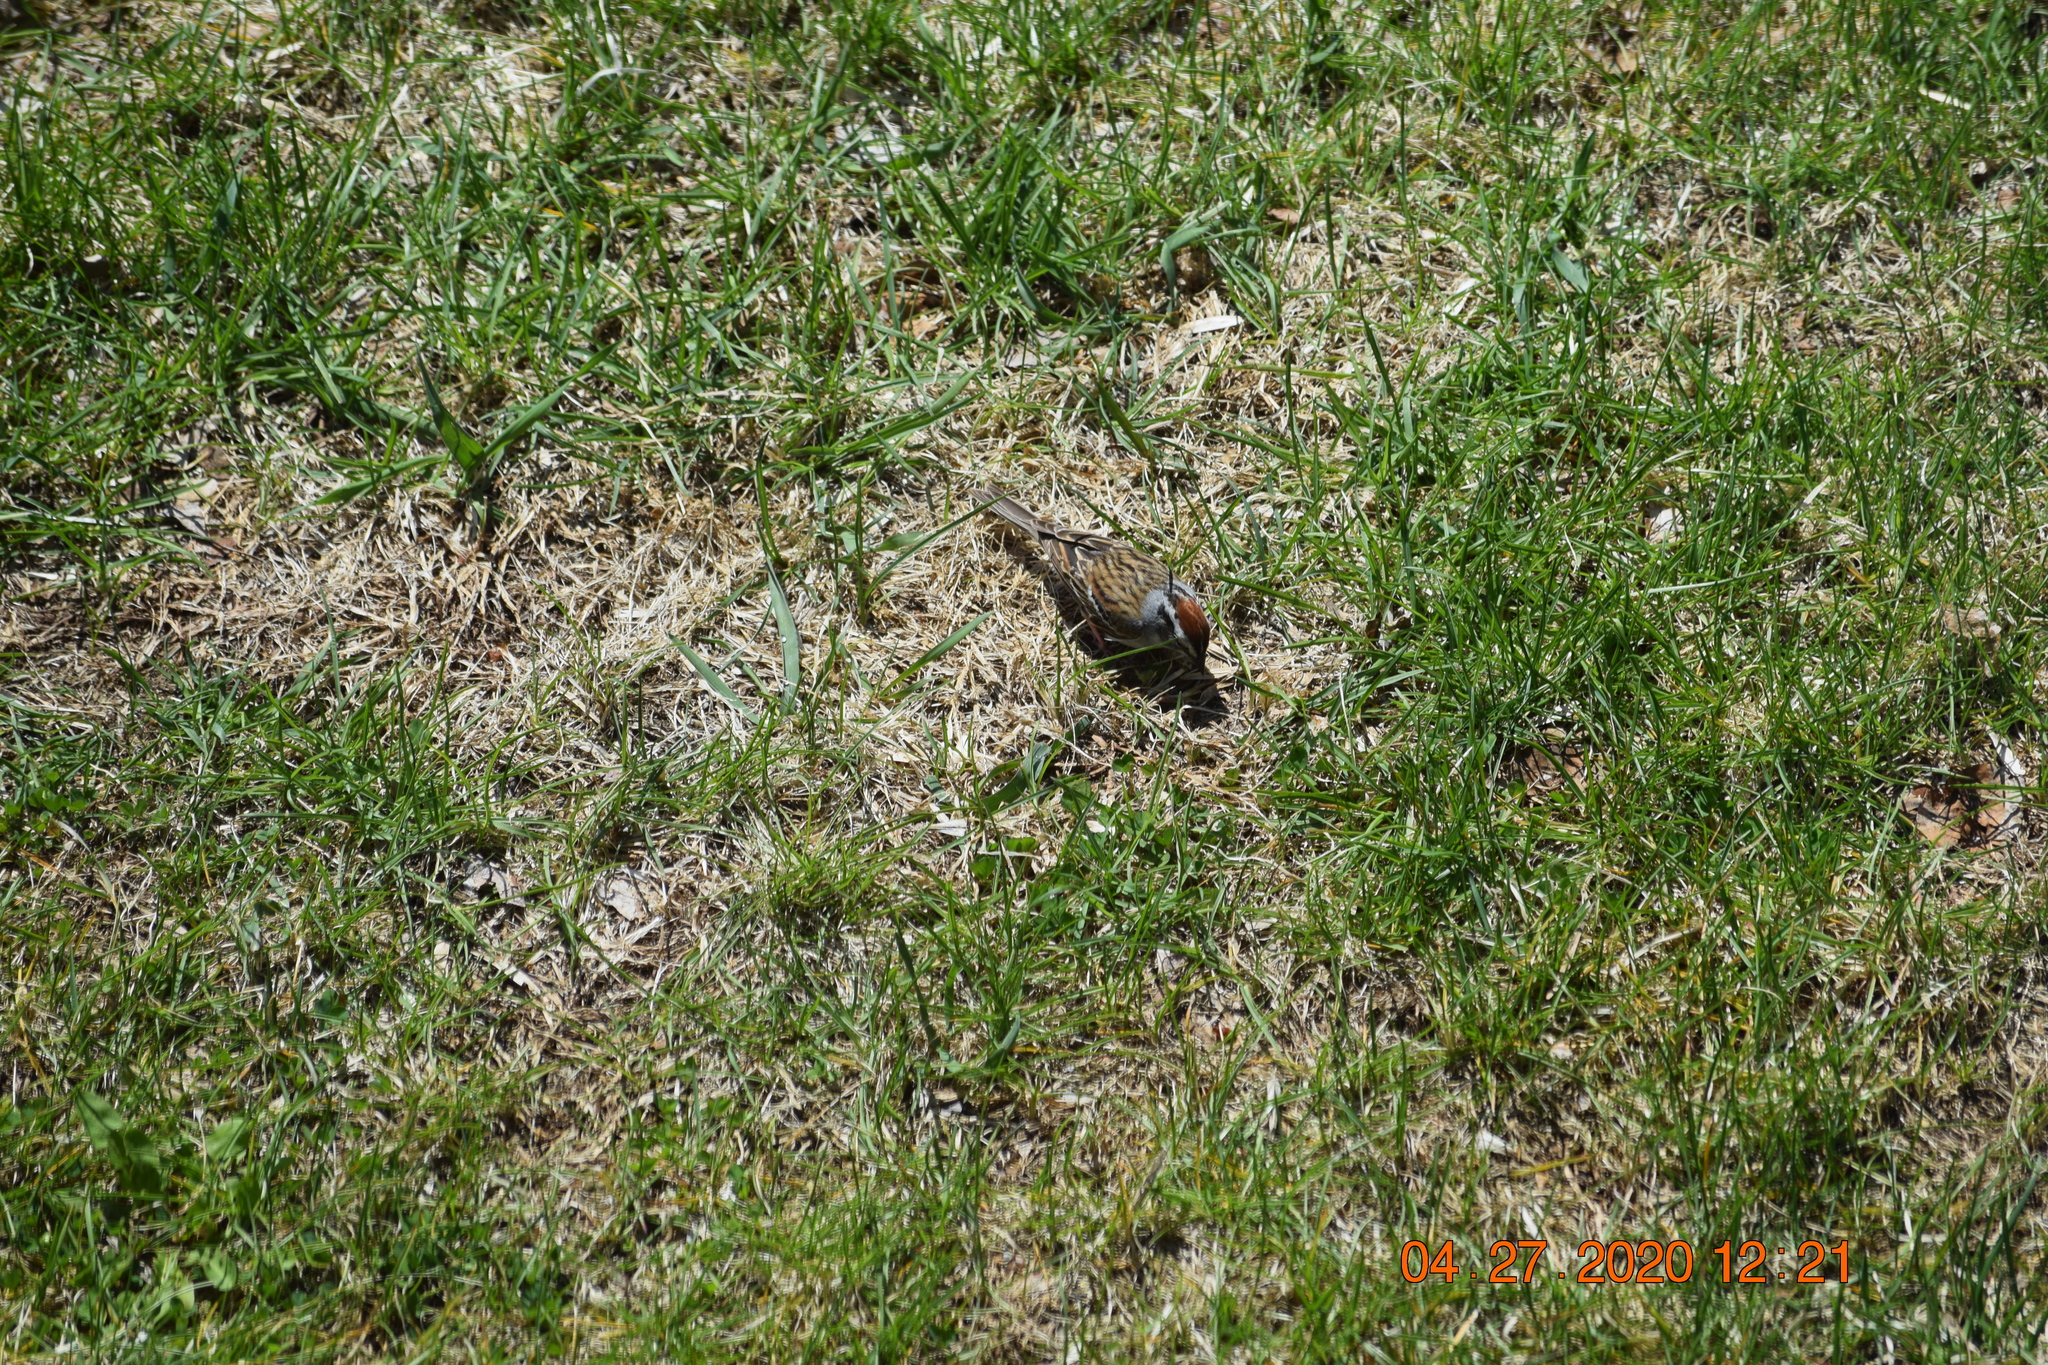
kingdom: Animalia
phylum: Chordata
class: Aves
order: Passeriformes
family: Passerellidae
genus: Spizella
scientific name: Spizella passerina
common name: Chipping sparrow
